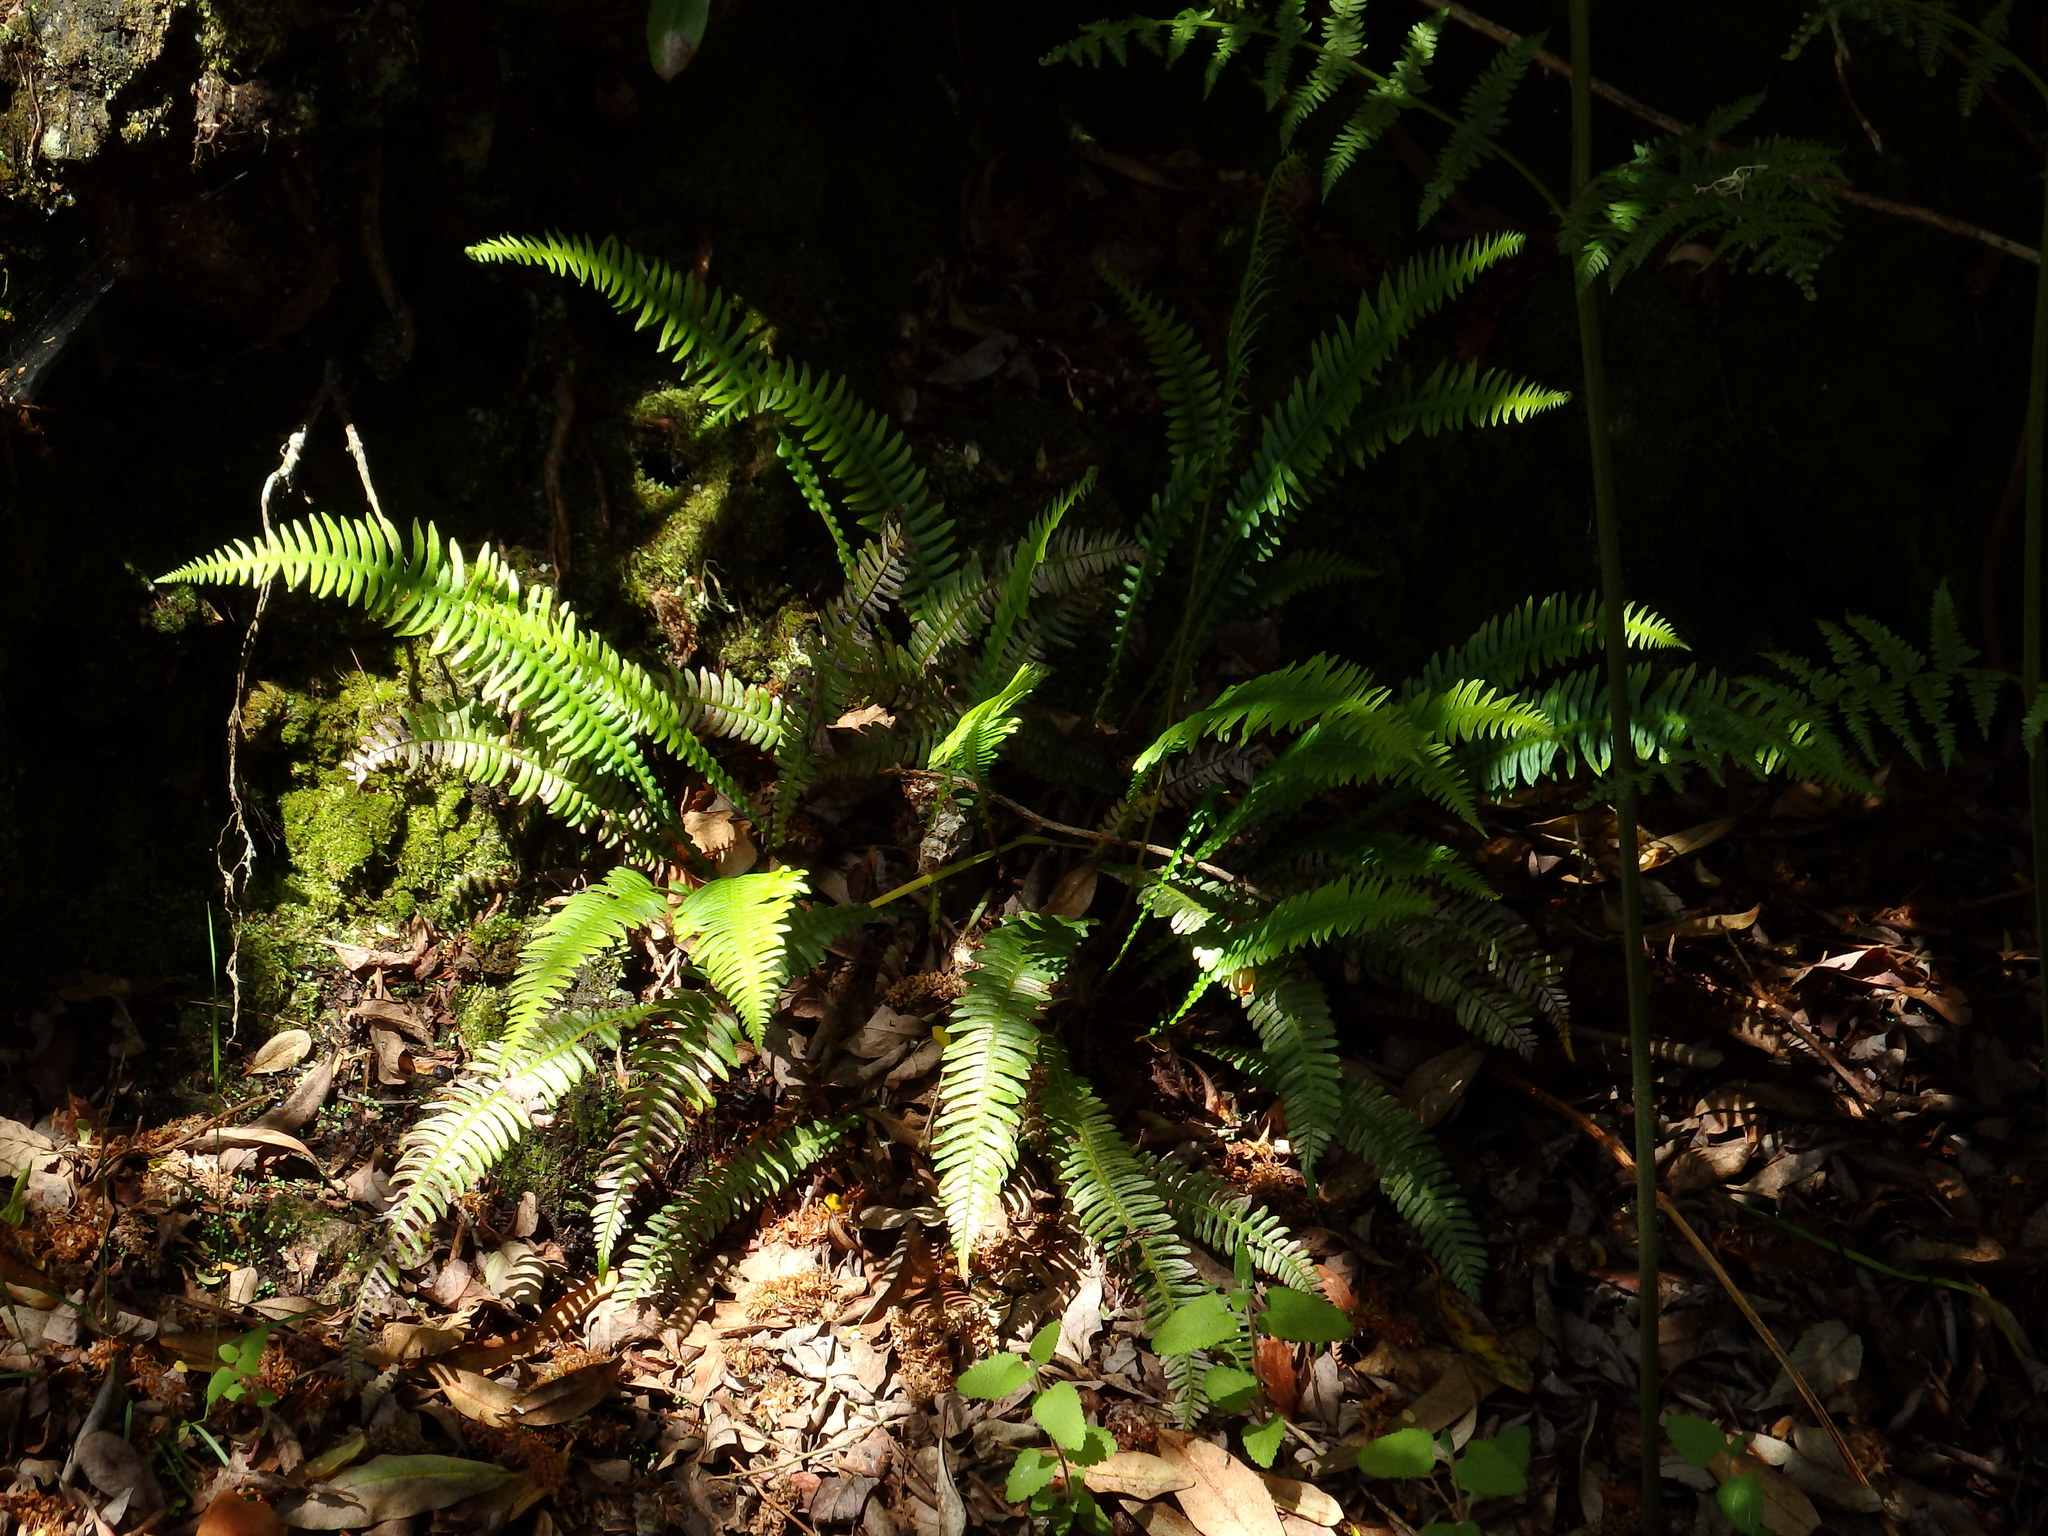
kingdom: Plantae
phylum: Tracheophyta
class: Polypodiopsida
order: Polypodiales
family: Blechnaceae
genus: Struthiopteris
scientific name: Struthiopteris spicant
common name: Deer fern
